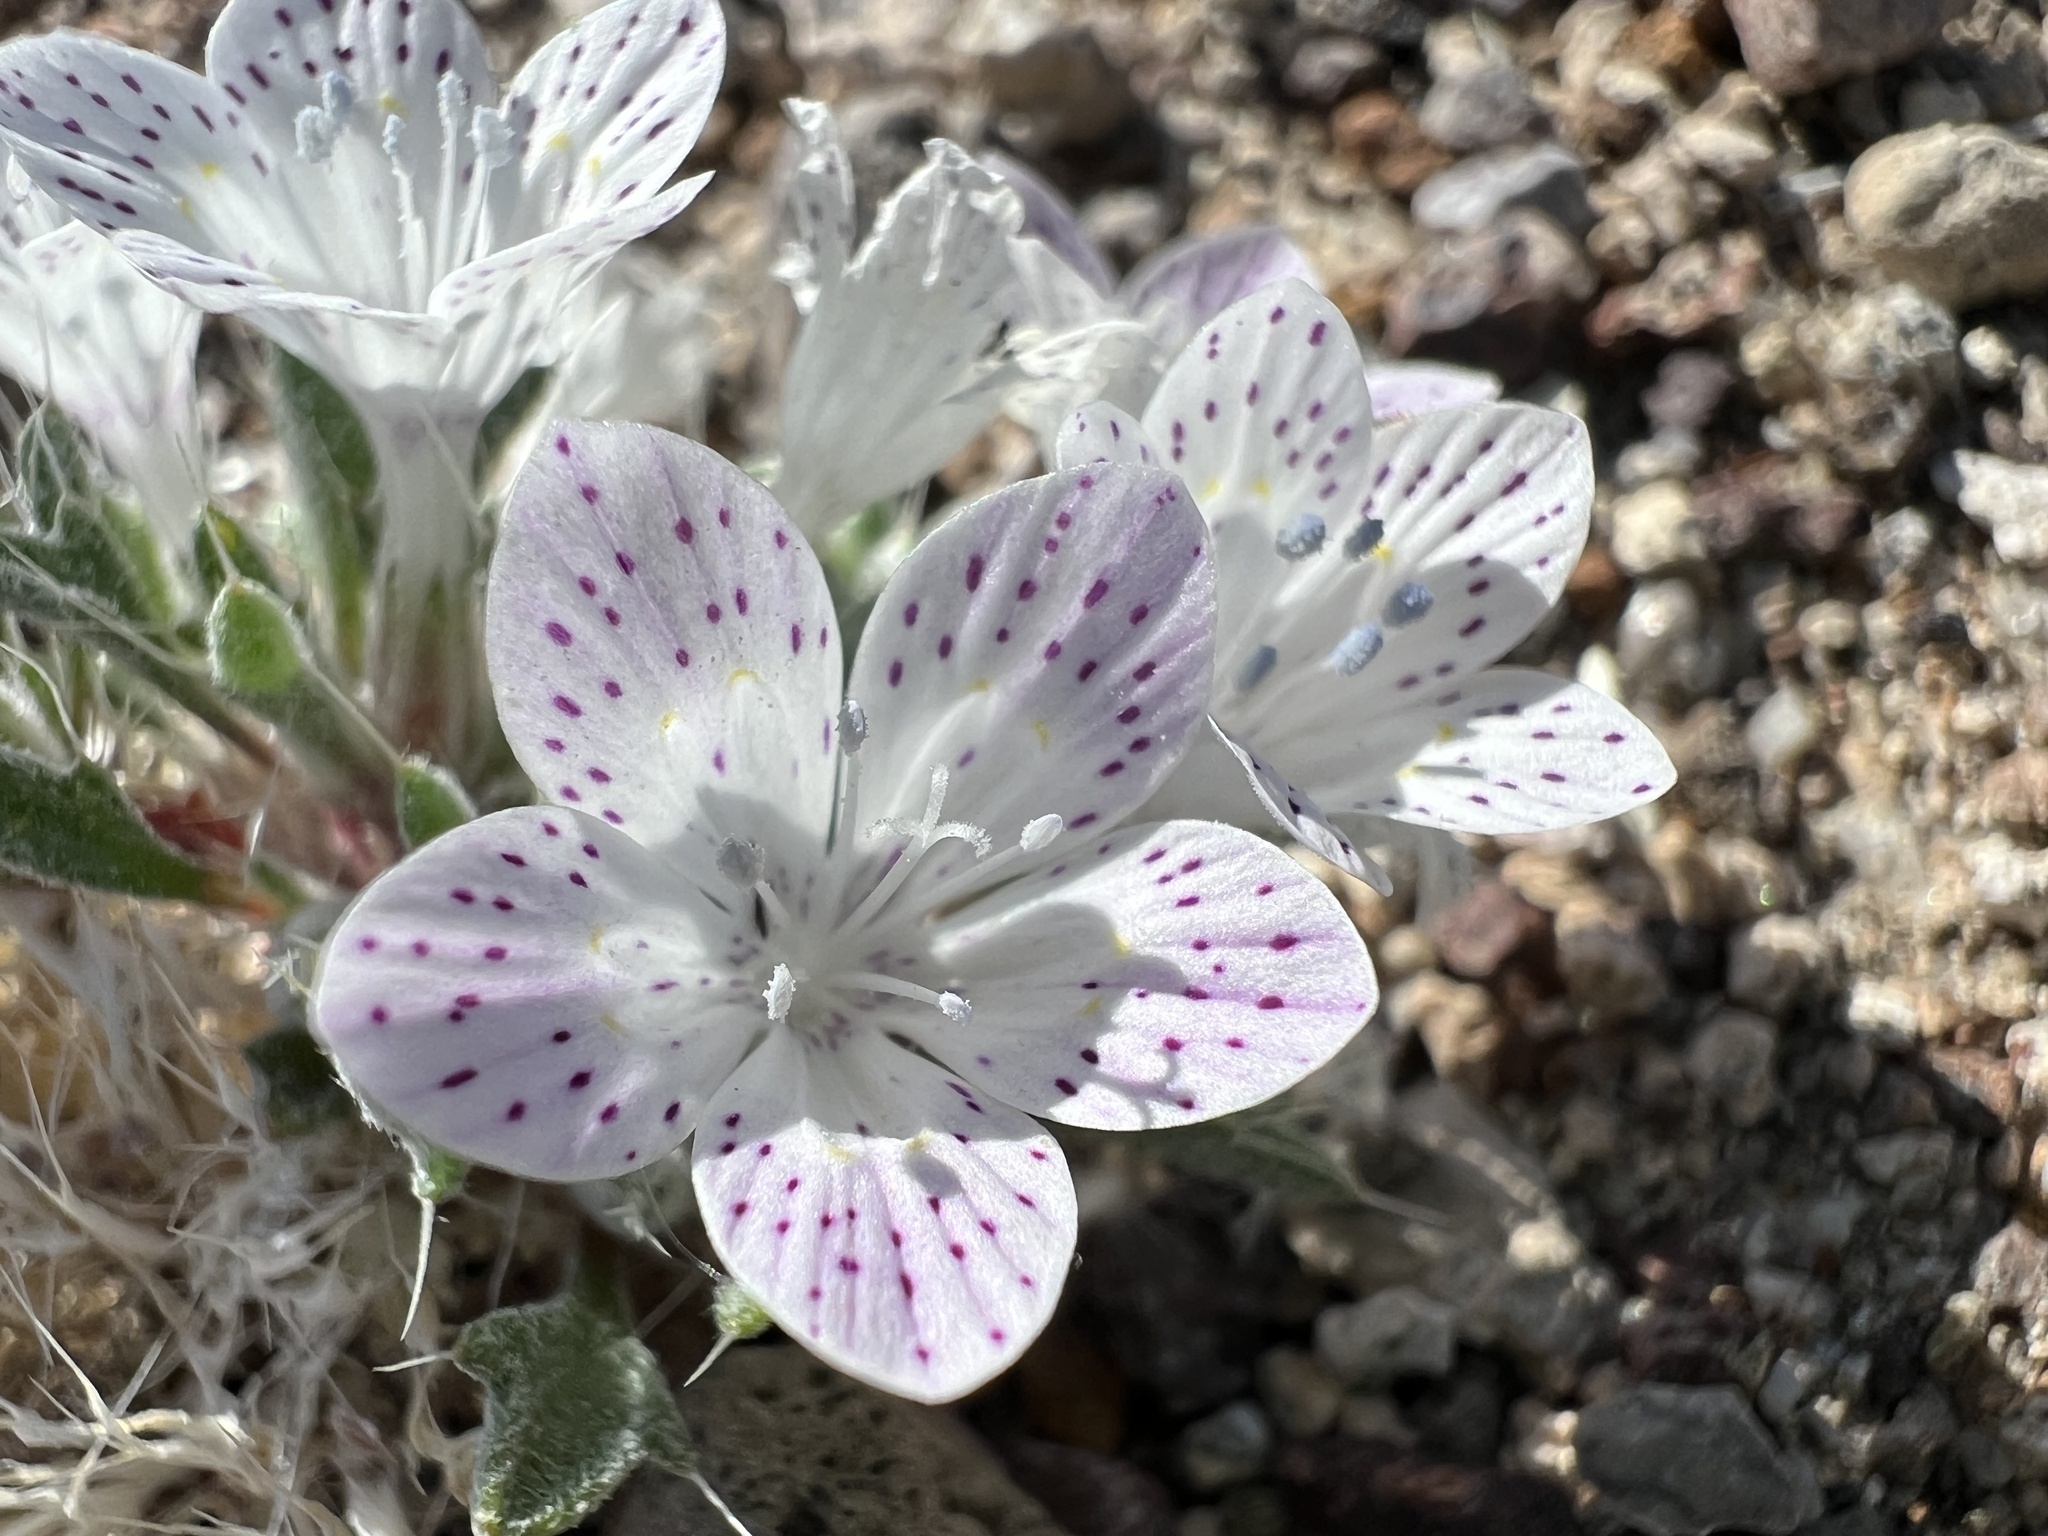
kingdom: Plantae
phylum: Tracheophyta
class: Magnoliopsida
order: Ericales
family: Polemoniaceae
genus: Langloisia
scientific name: Langloisia setosissima
